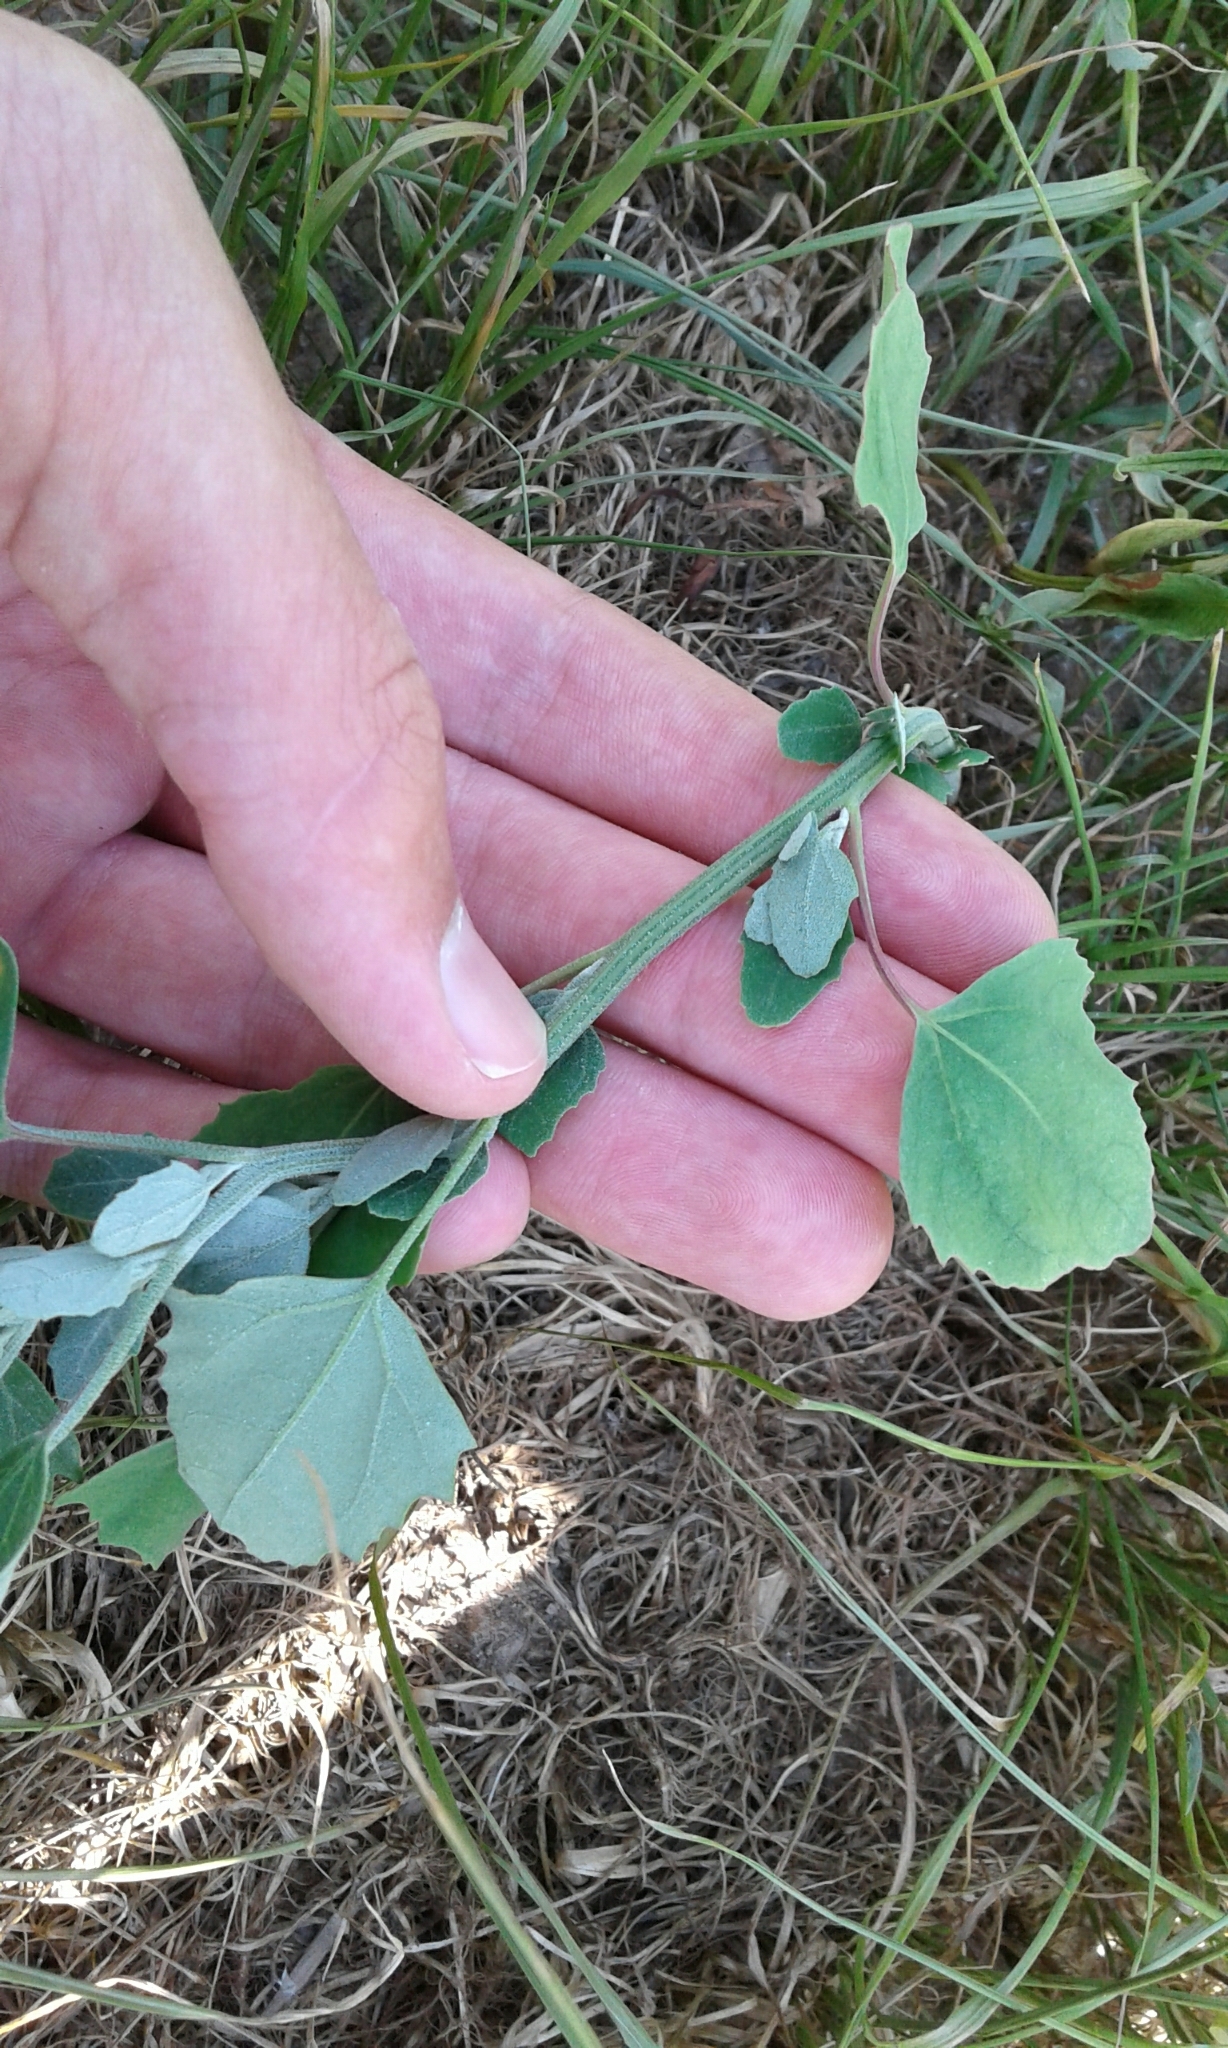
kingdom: Plantae
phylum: Tracheophyta
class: Magnoliopsida
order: Caryophyllales
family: Amaranthaceae
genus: Chenopodium
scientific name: Chenopodium album
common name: Fat-hen
